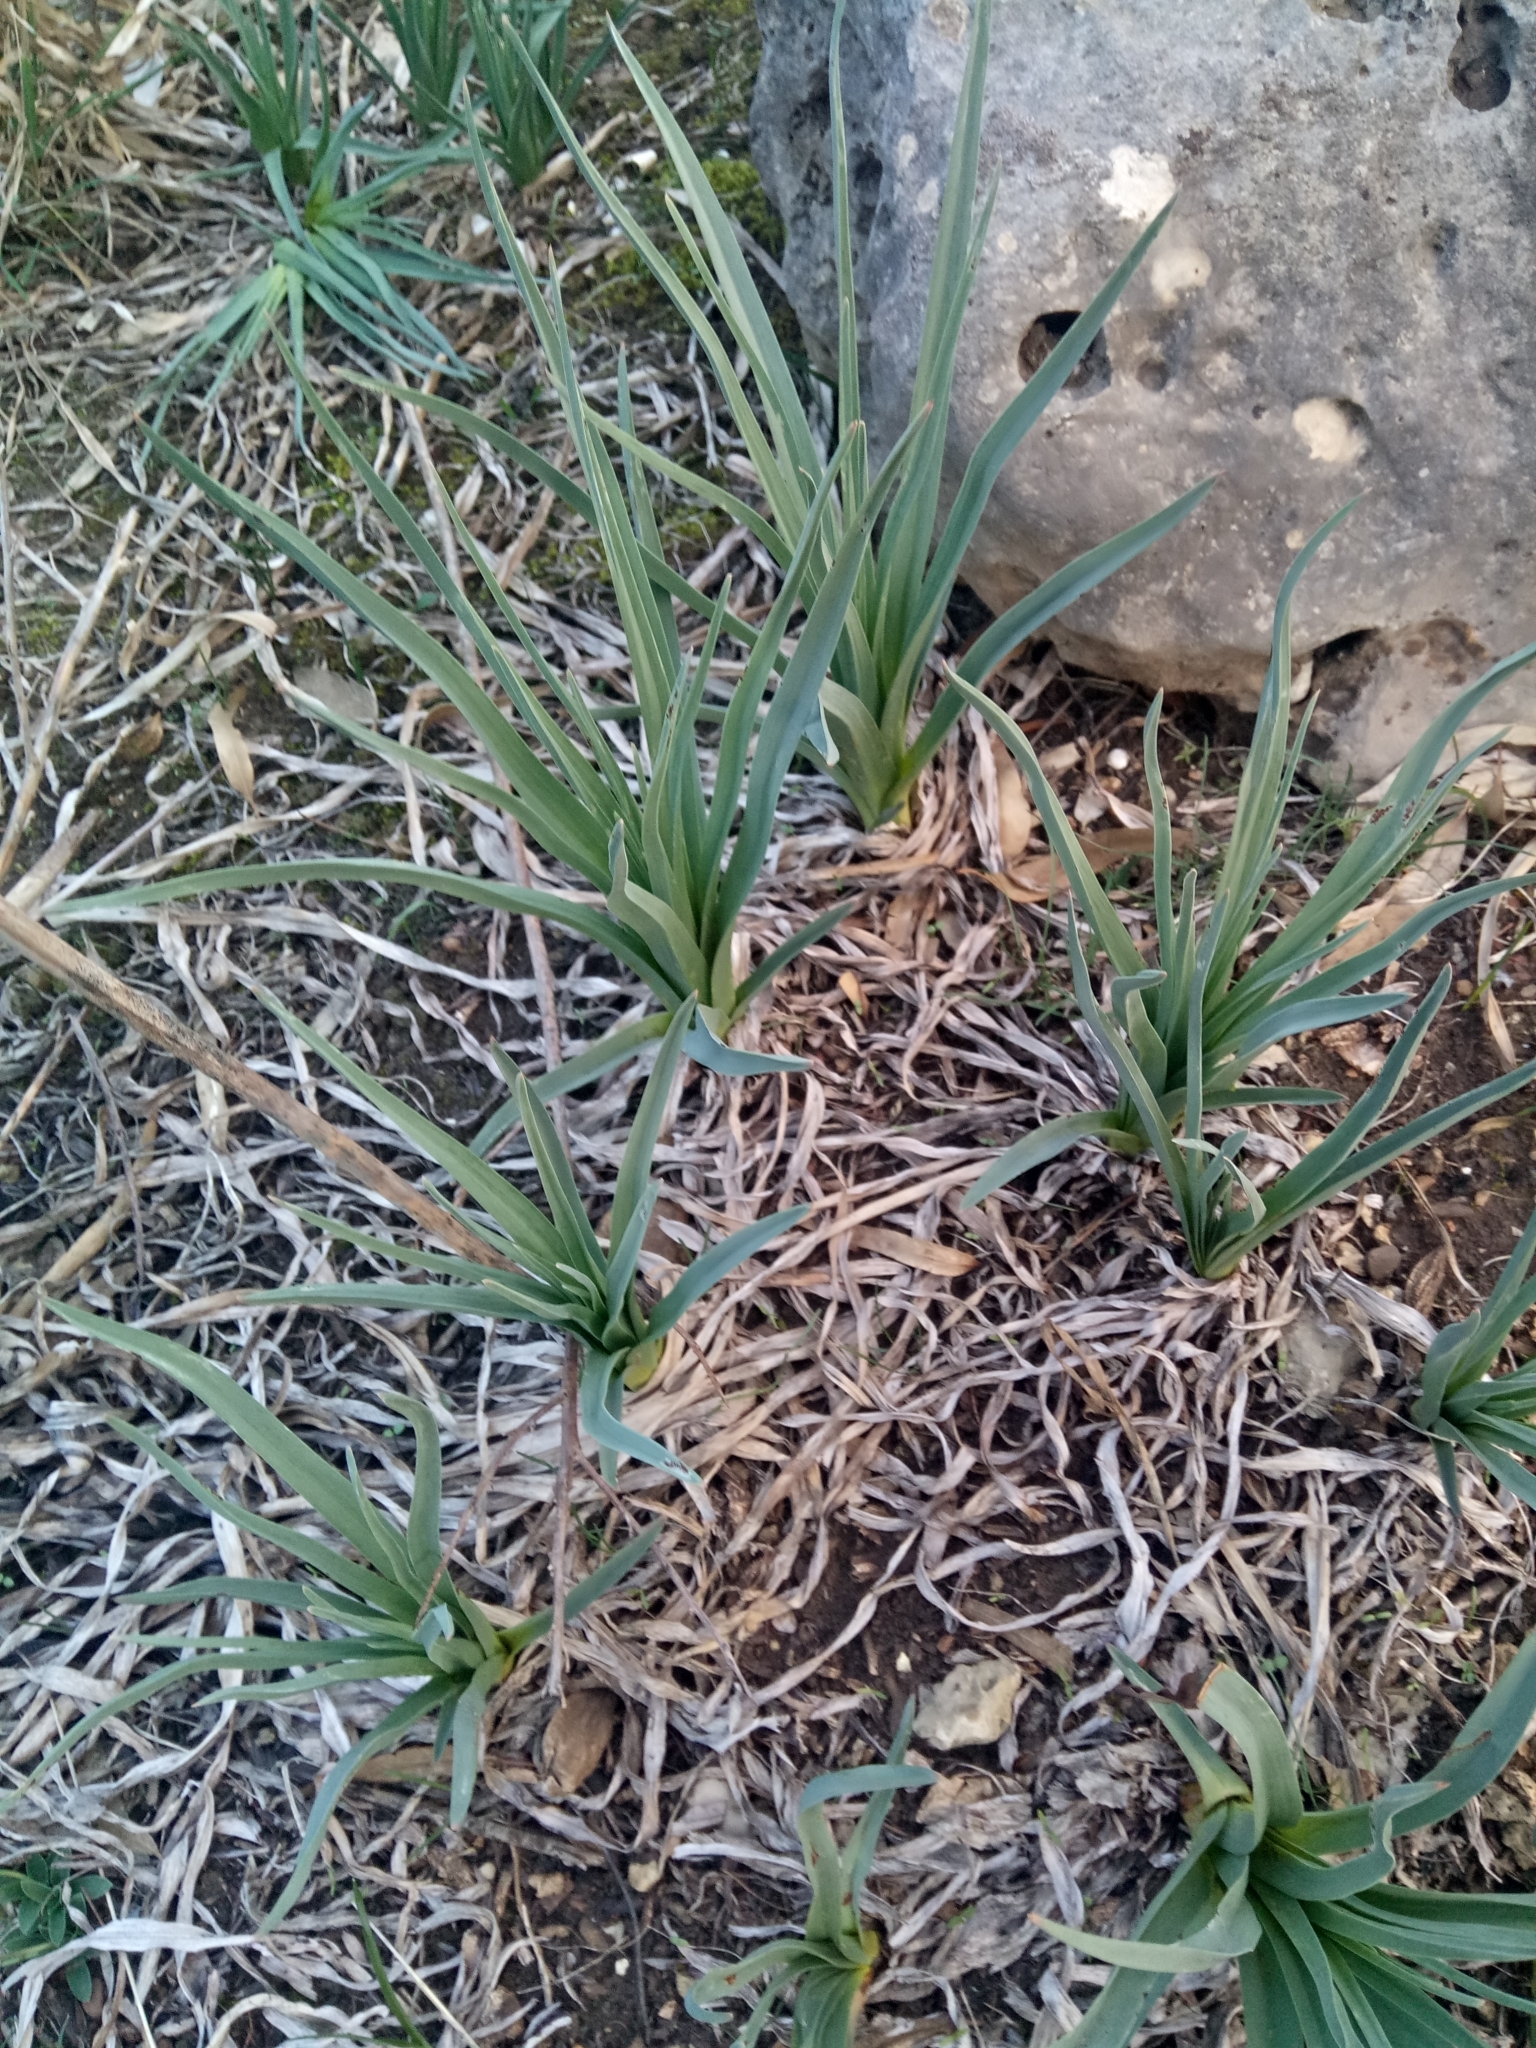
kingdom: Plantae
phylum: Tracheophyta
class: Liliopsida
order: Asparagales
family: Asphodelaceae
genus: Asphodelus
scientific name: Asphodelus ramosus
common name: Silverrod
